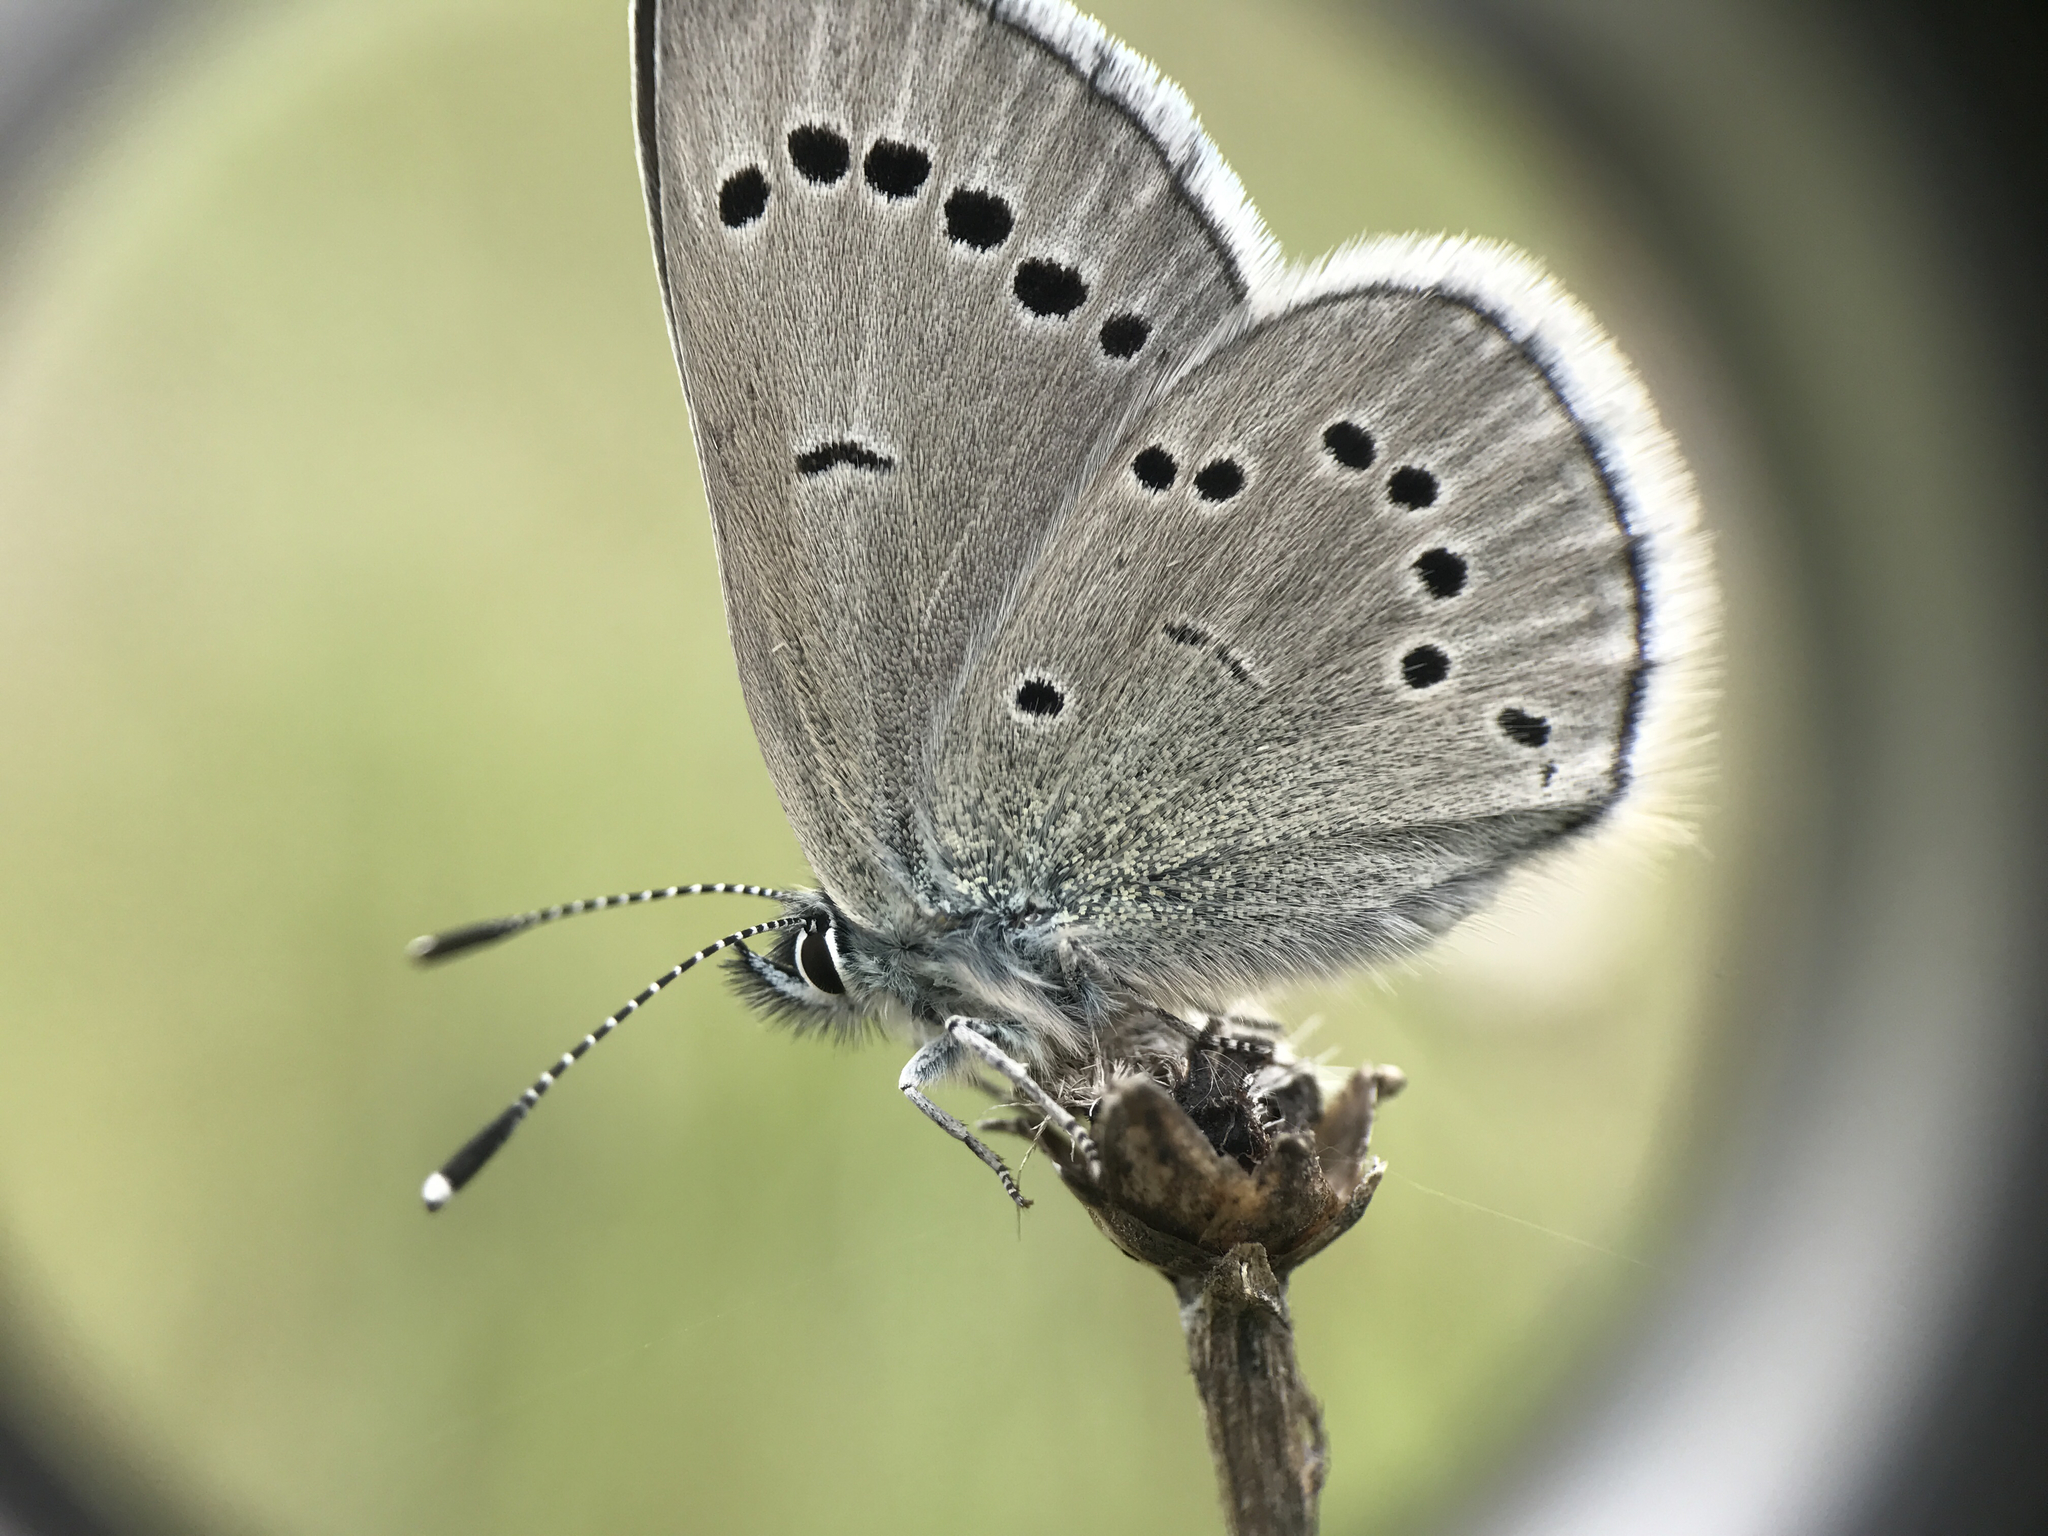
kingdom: Animalia
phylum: Arthropoda
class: Insecta
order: Lepidoptera
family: Lycaenidae
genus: Glaucopsyche
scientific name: Glaucopsyche lygdamus
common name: Silvery blue
